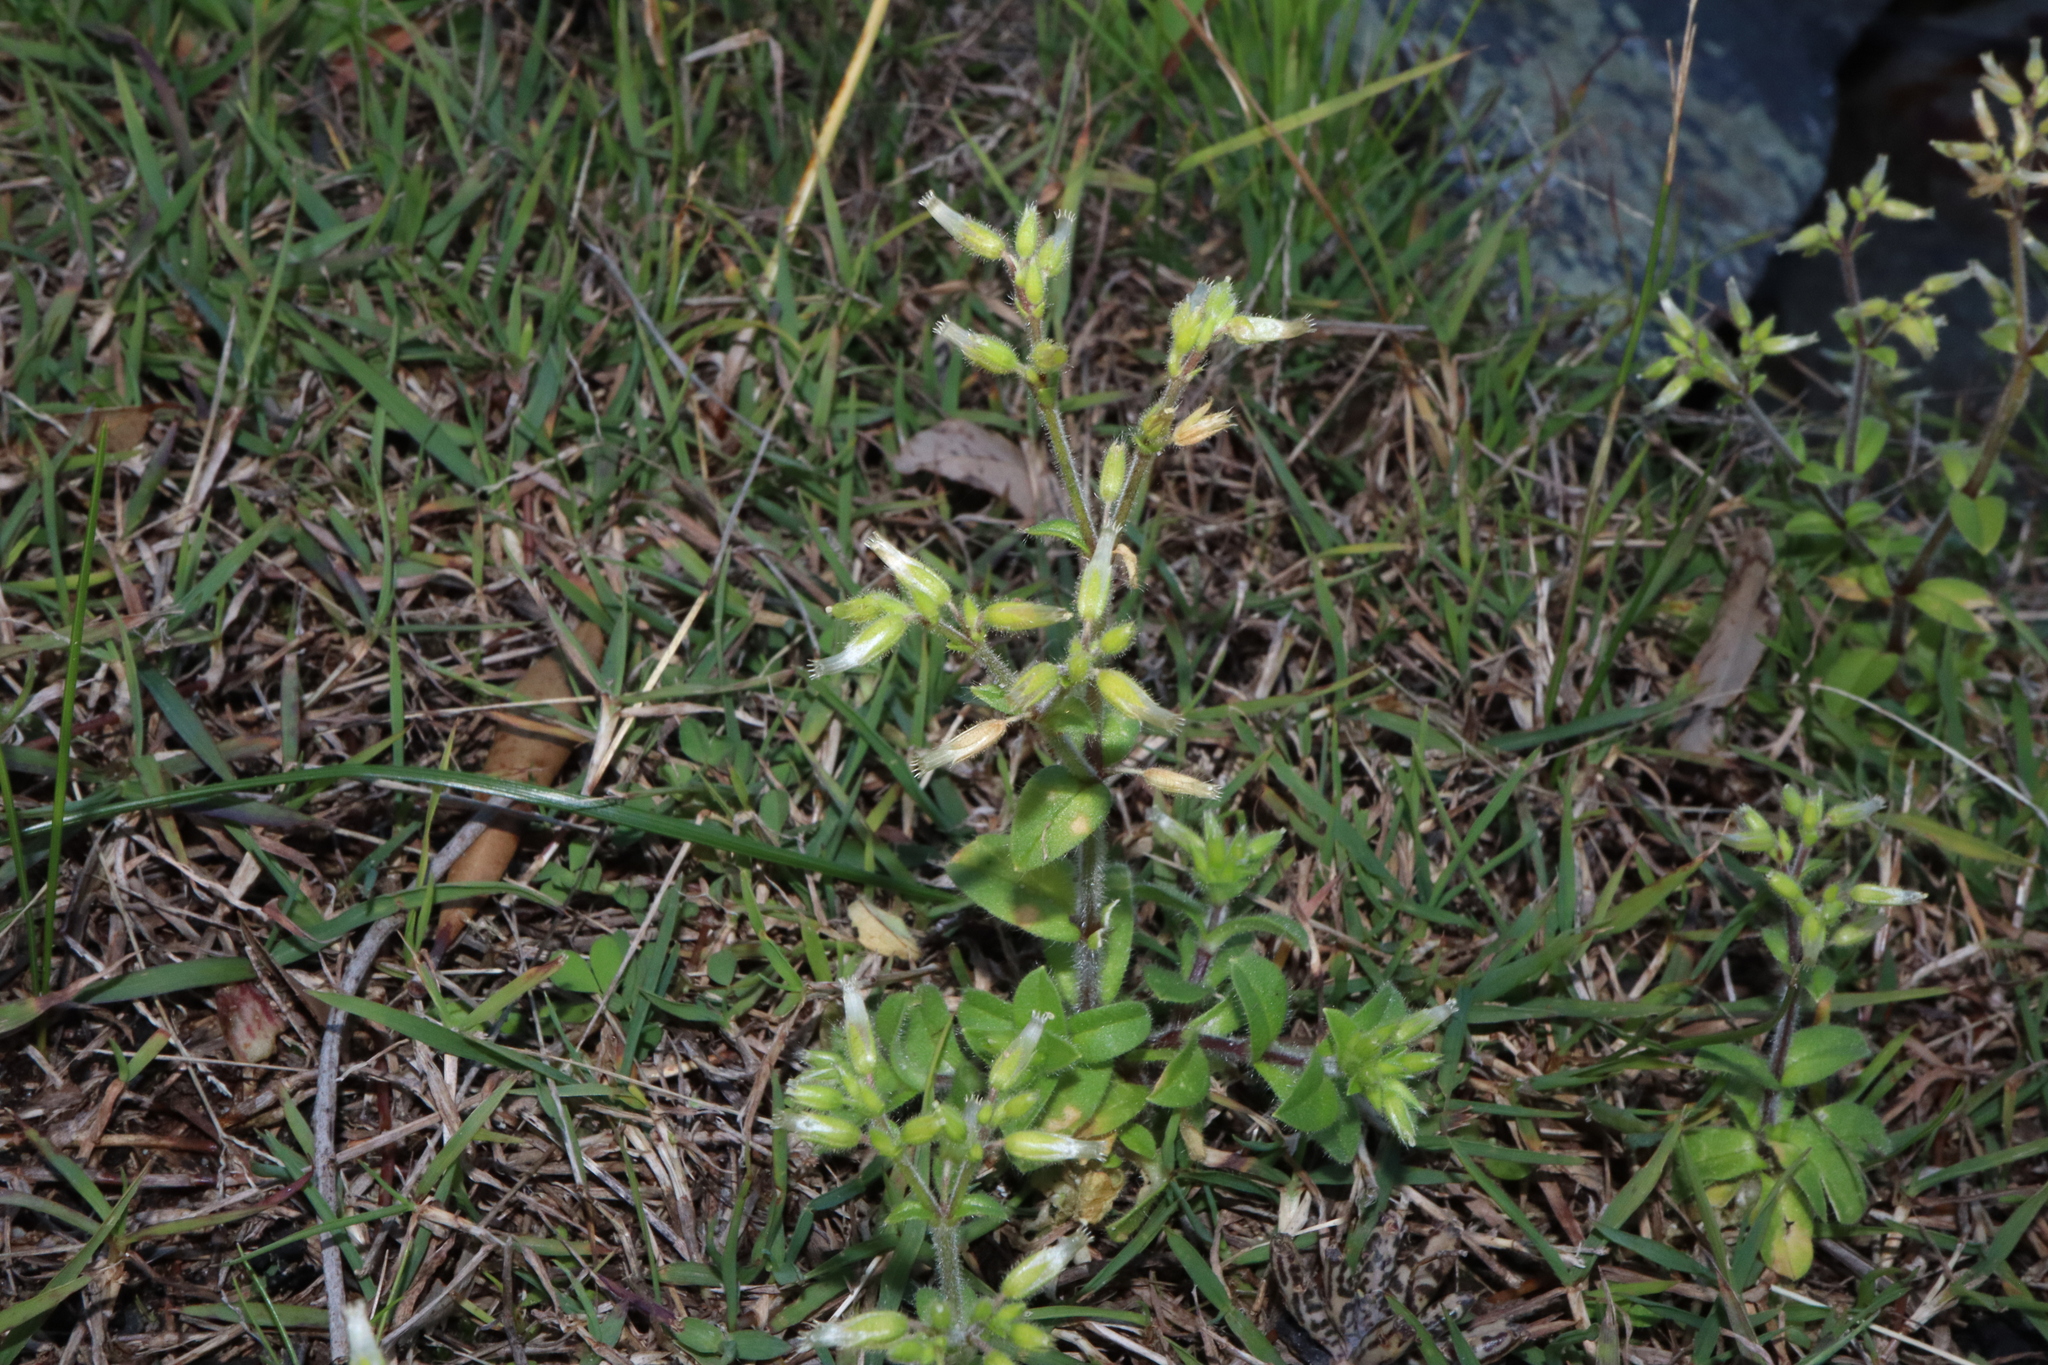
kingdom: Plantae
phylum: Tracheophyta
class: Magnoliopsida
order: Caryophyllales
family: Caryophyllaceae
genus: Cerastium
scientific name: Cerastium glomeratum
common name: Sticky chickweed
